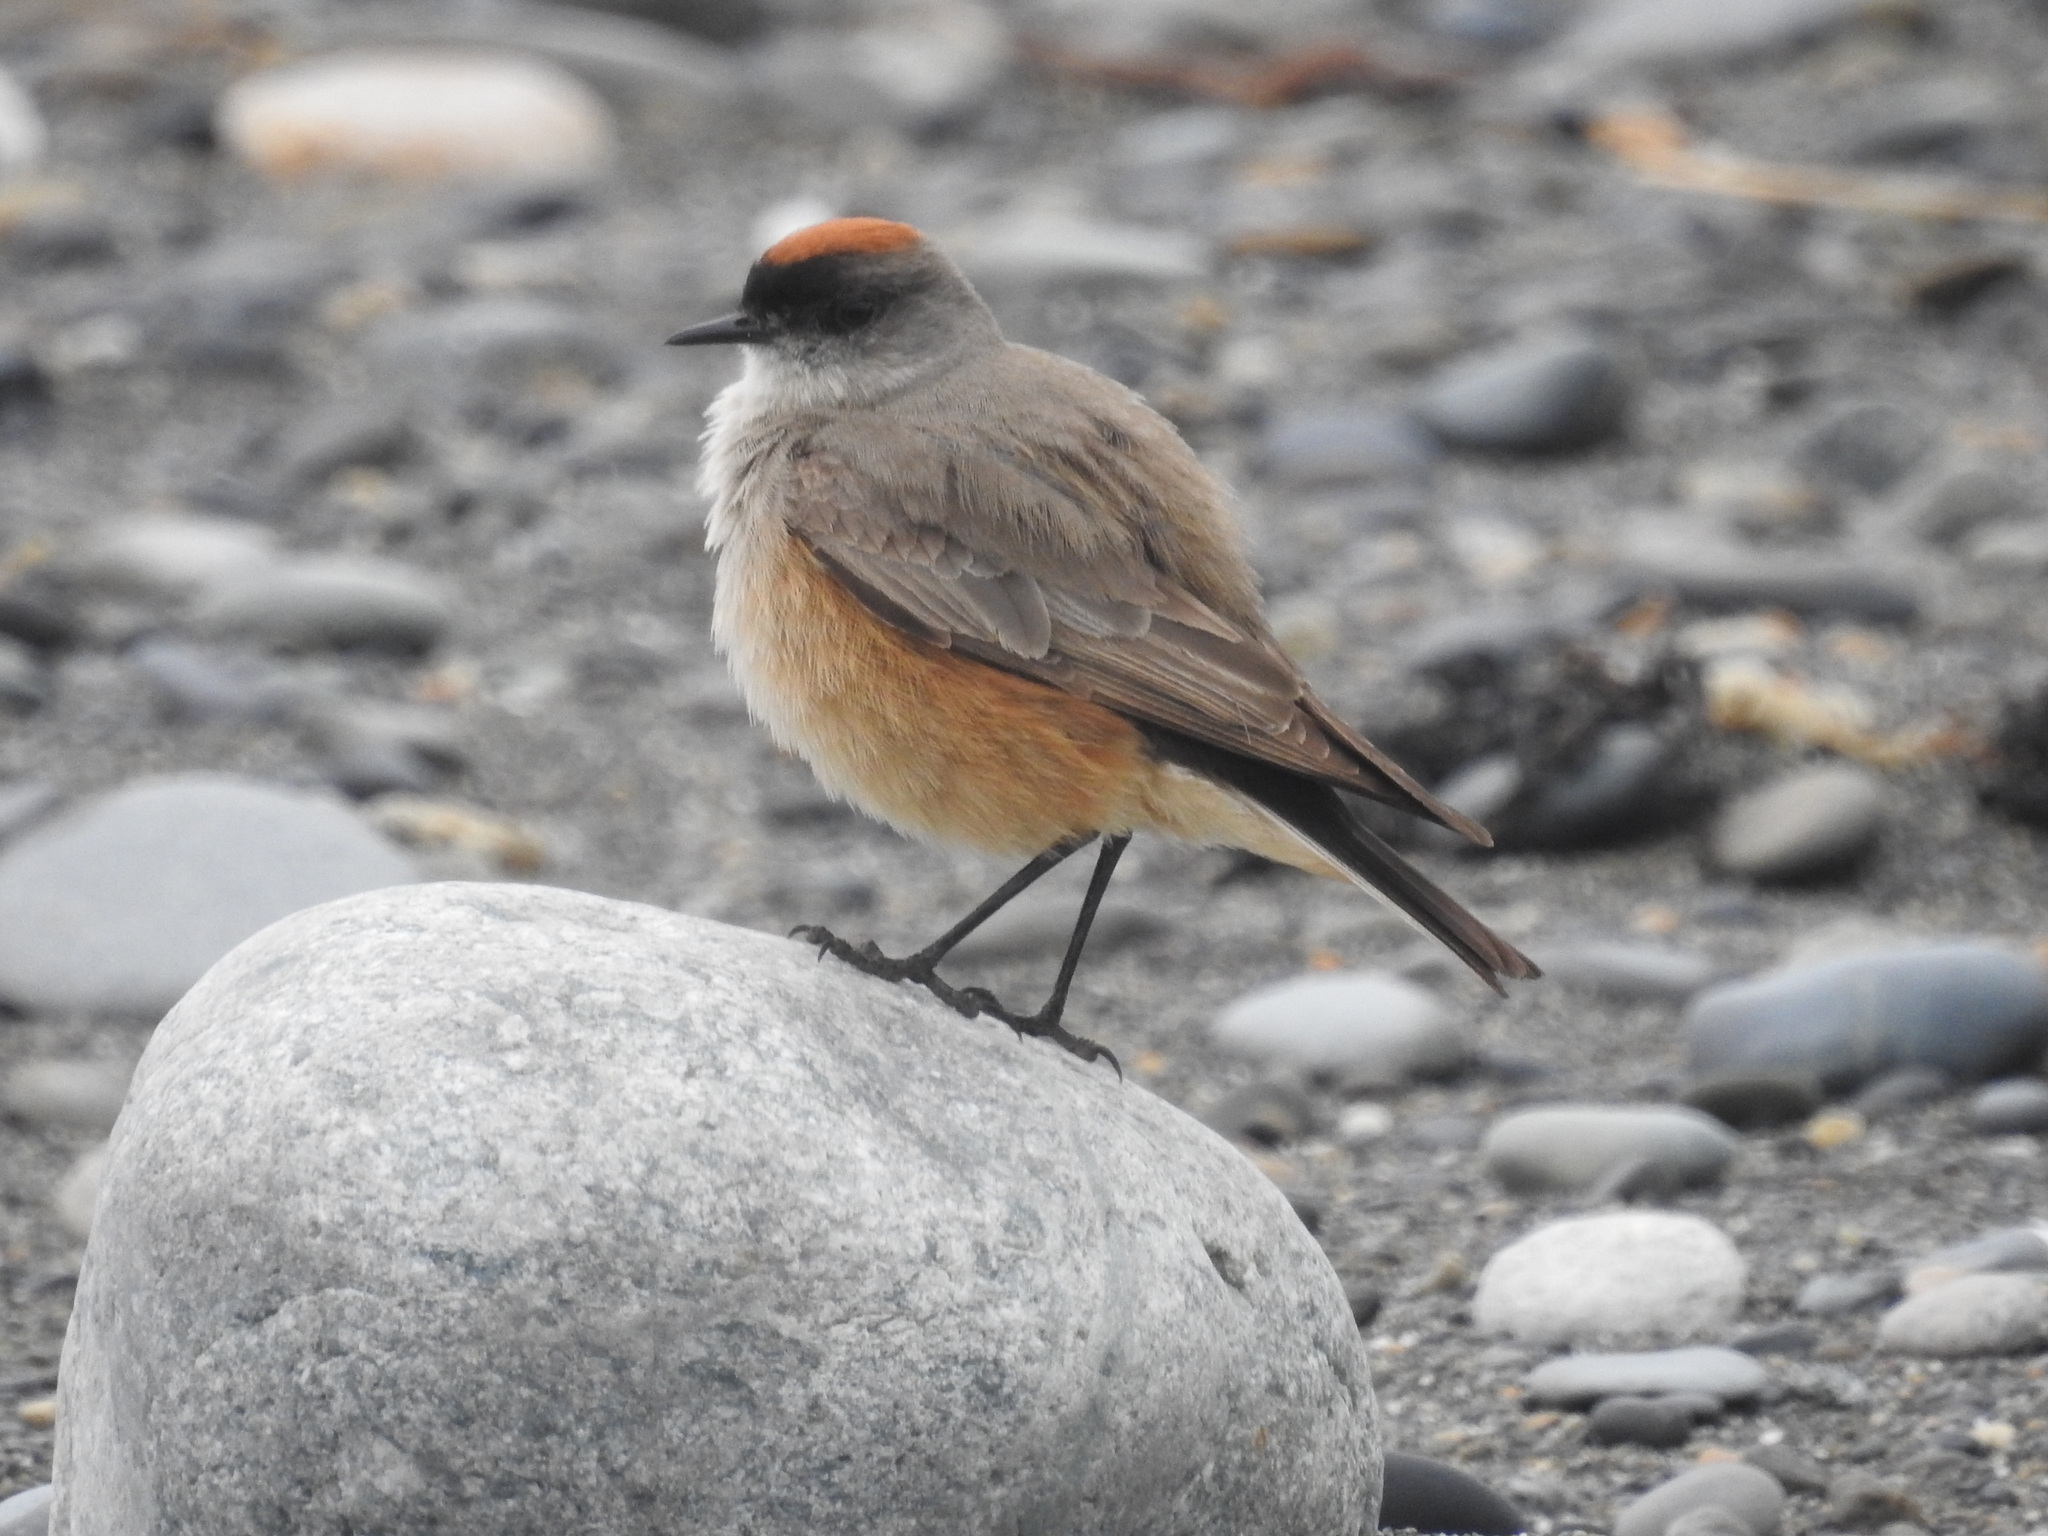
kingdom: Animalia
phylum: Chordata
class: Aves
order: Passeriformes
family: Tyrannidae
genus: Muscisaxicola
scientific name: Muscisaxicola capistratus
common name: Cinnamon-bellied ground tyrant
